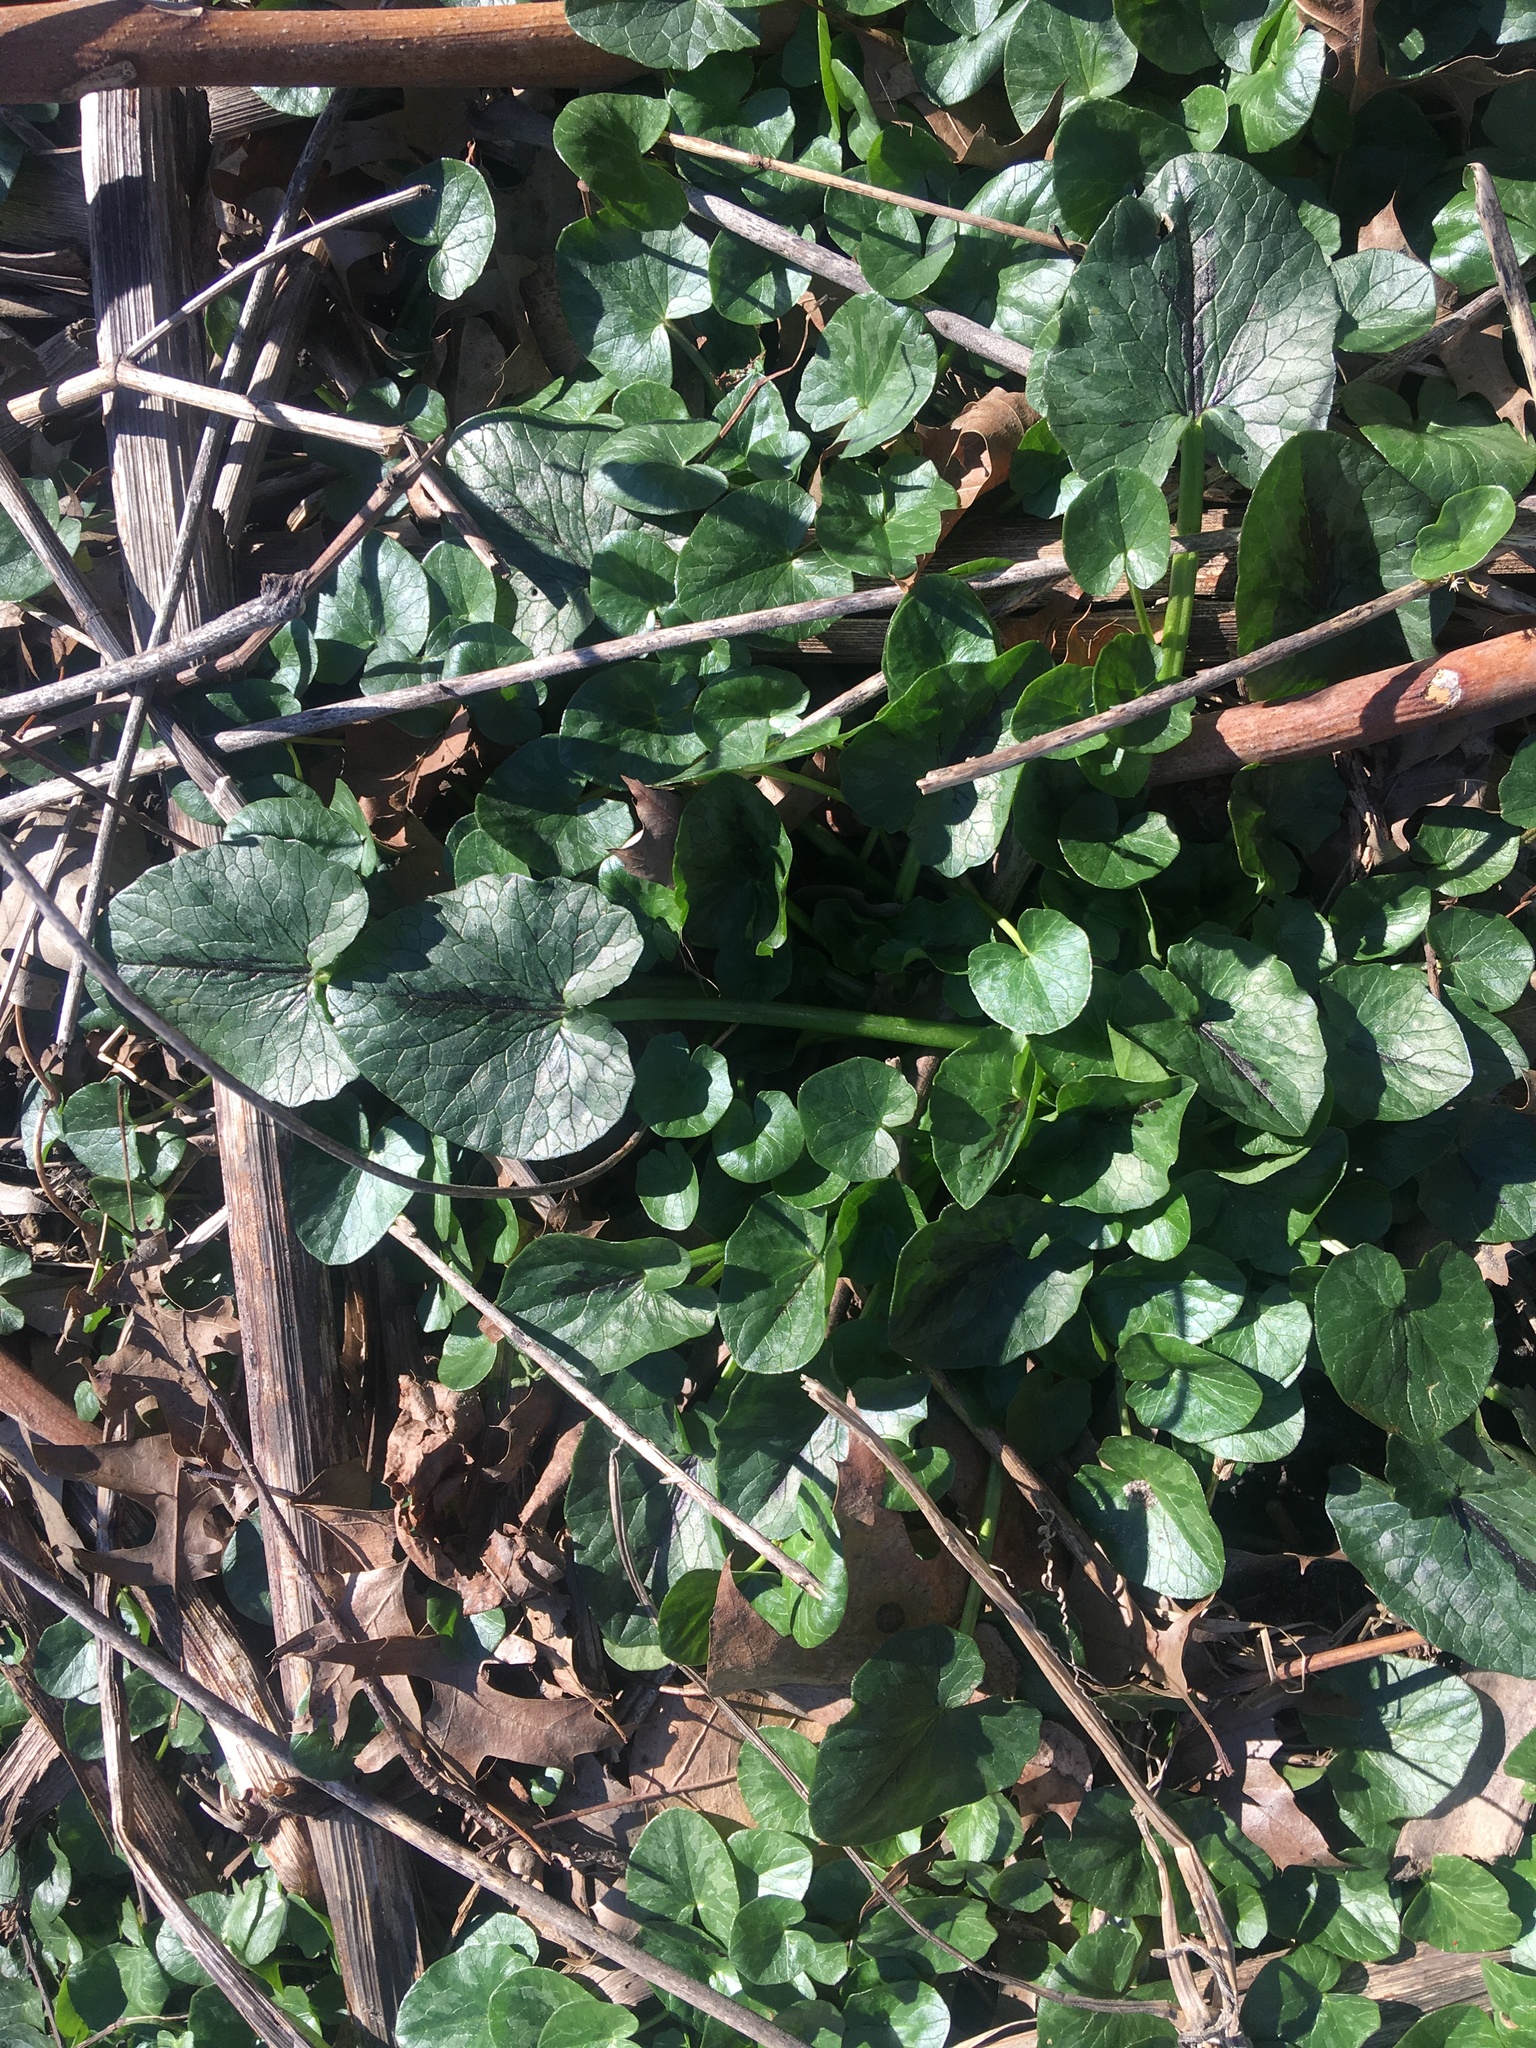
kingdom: Plantae
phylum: Tracheophyta
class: Magnoliopsida
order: Ranunculales
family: Ranunculaceae
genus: Ficaria
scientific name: Ficaria verna
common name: Lesser celandine
